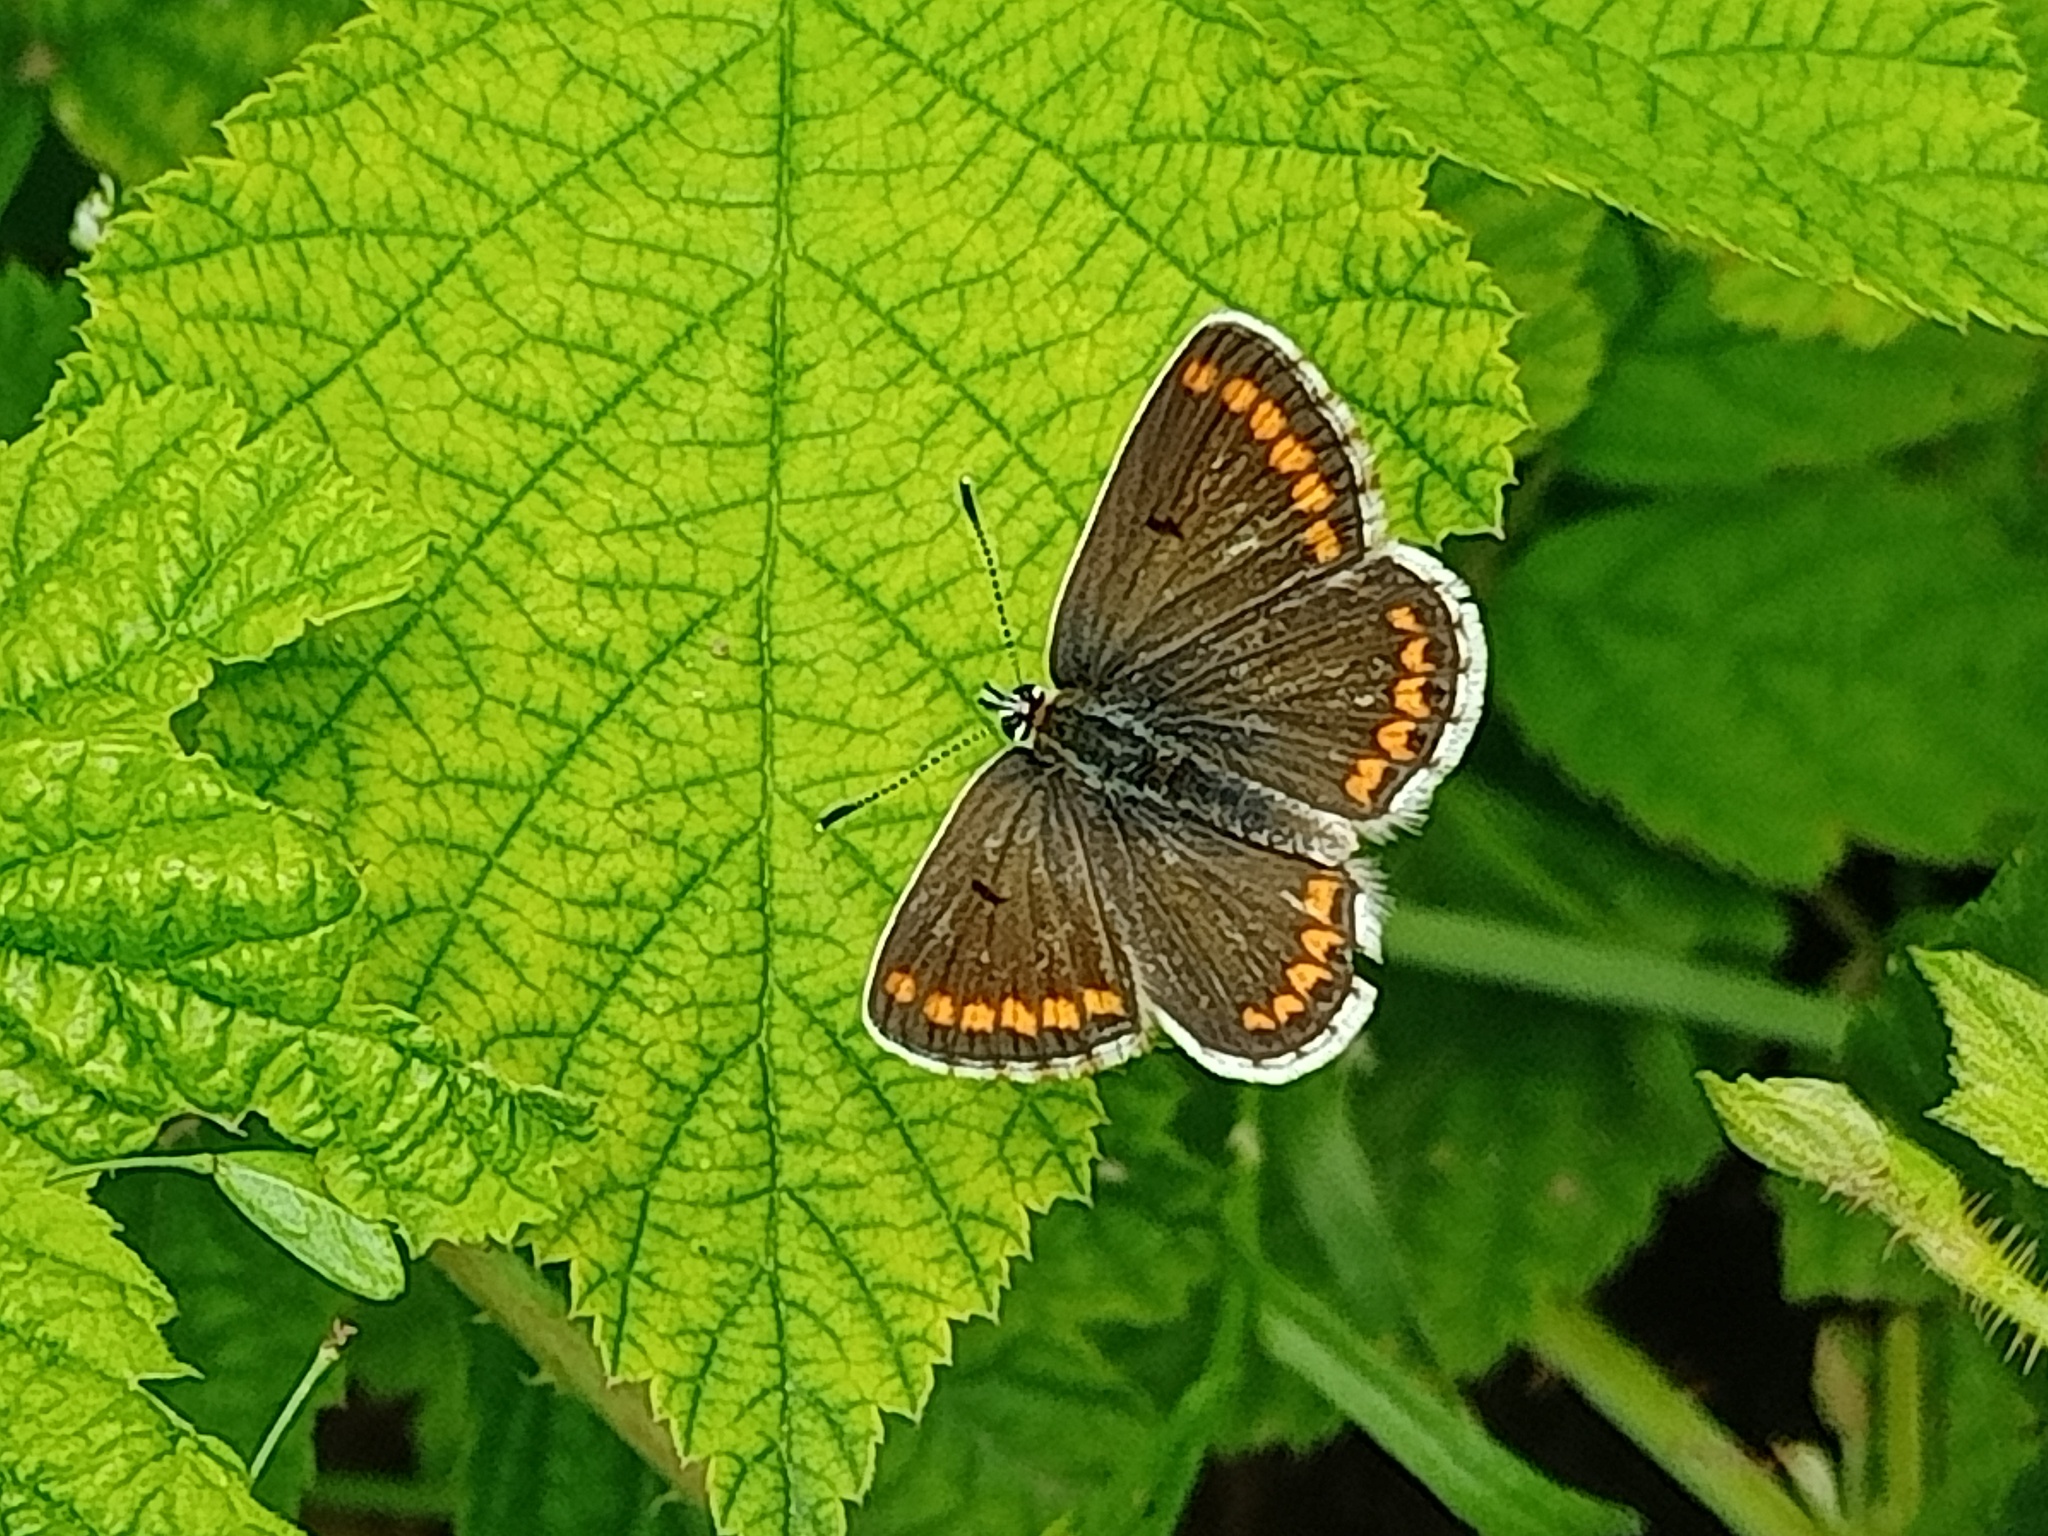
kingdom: Animalia
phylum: Arthropoda
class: Insecta
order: Lepidoptera
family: Lycaenidae
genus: Aricia
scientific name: Aricia agestis
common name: Brown argus
